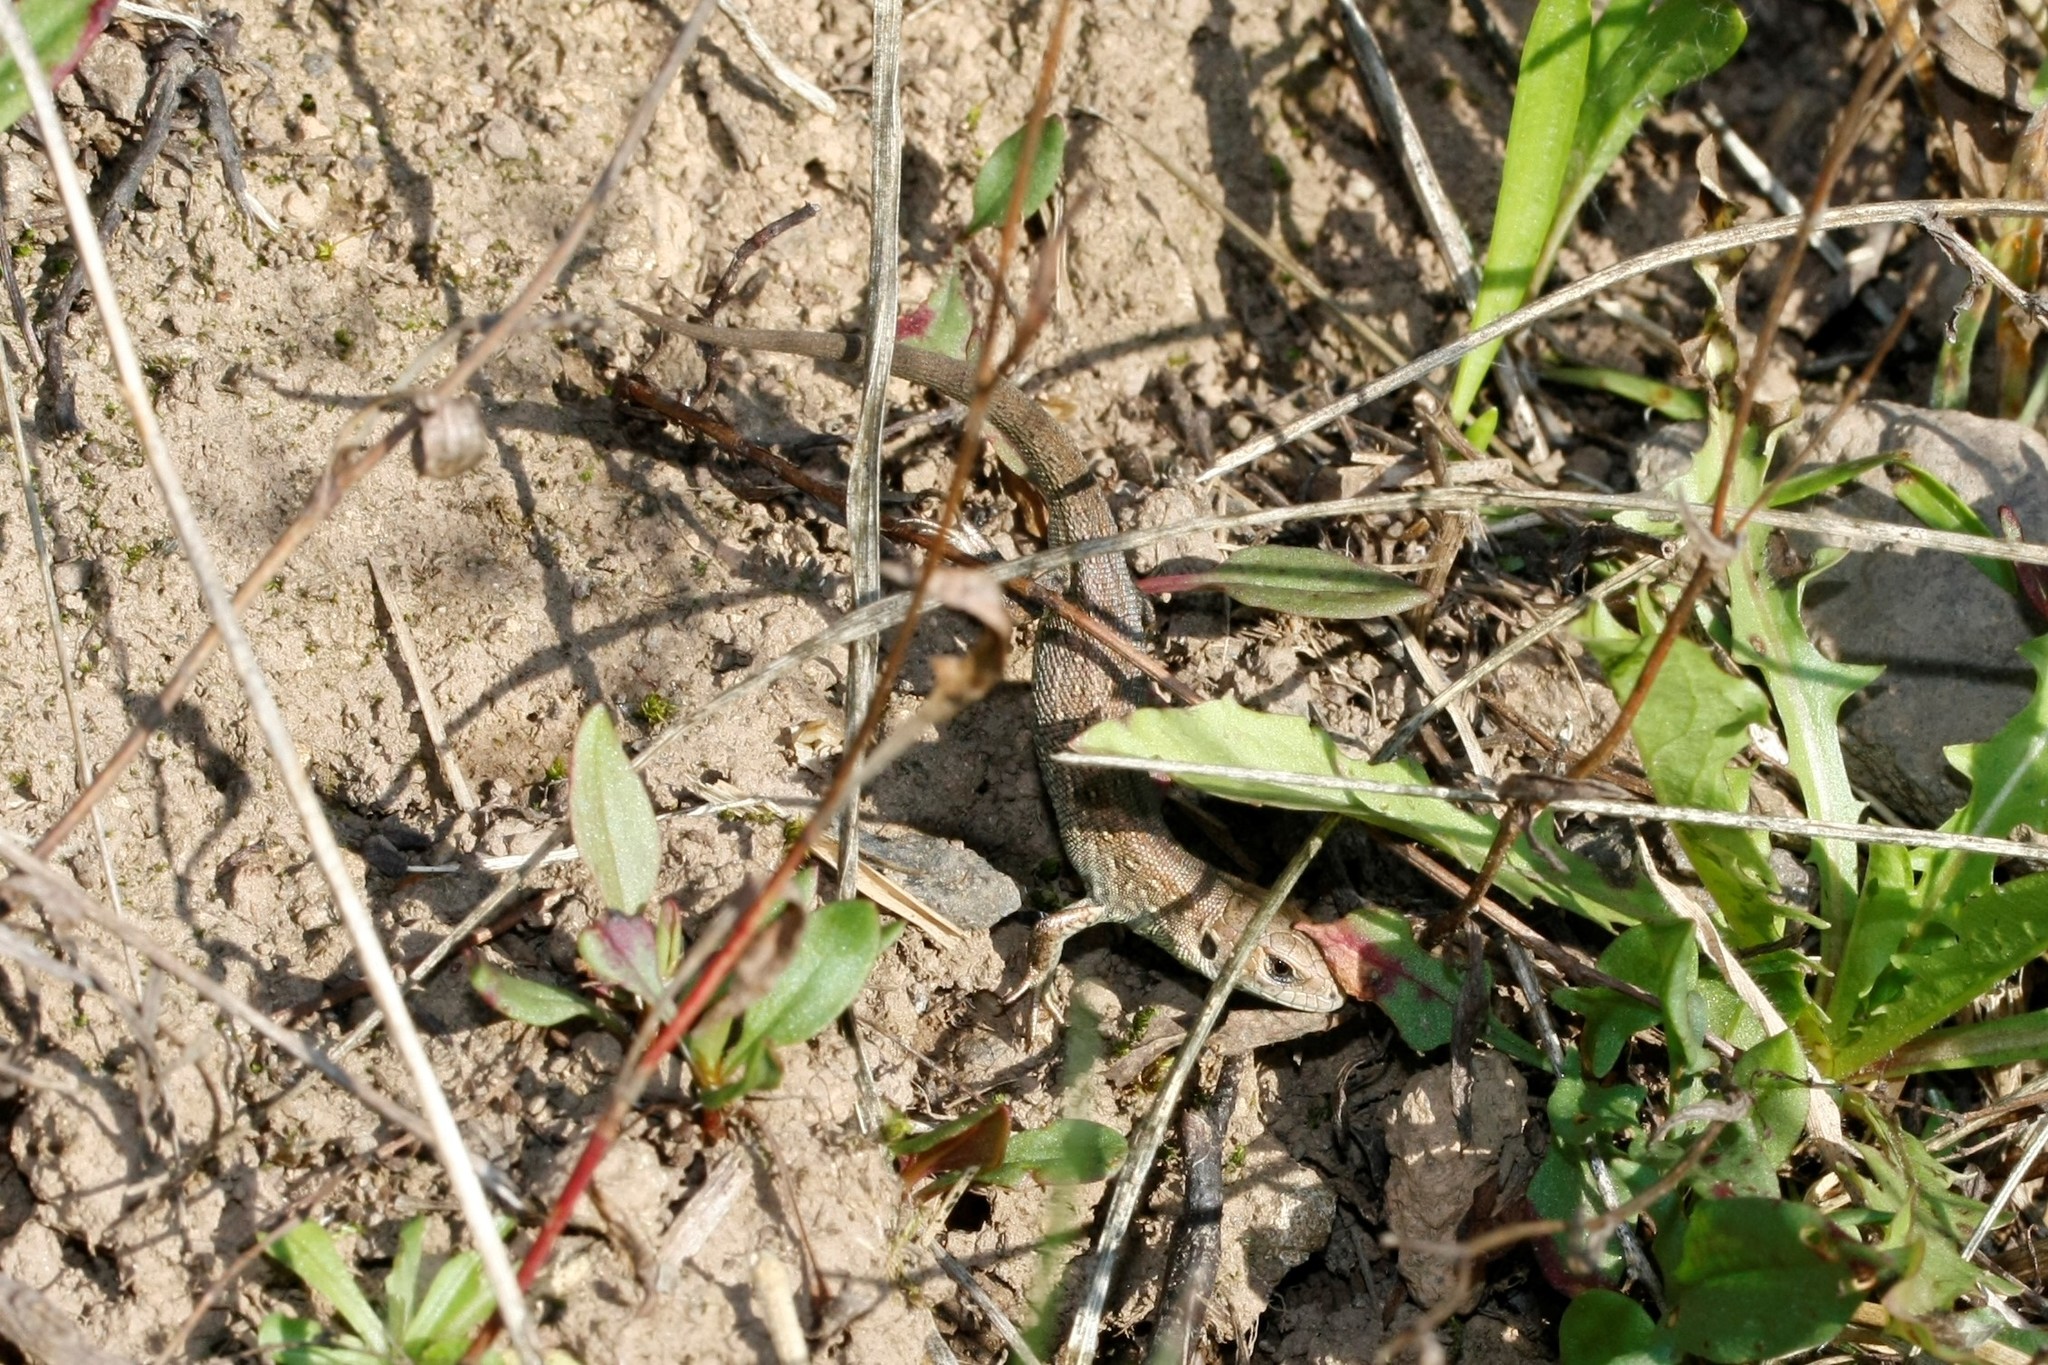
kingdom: Animalia
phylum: Chordata
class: Squamata
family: Lacertidae
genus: Lacerta
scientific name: Lacerta agilis
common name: Sand lizard
